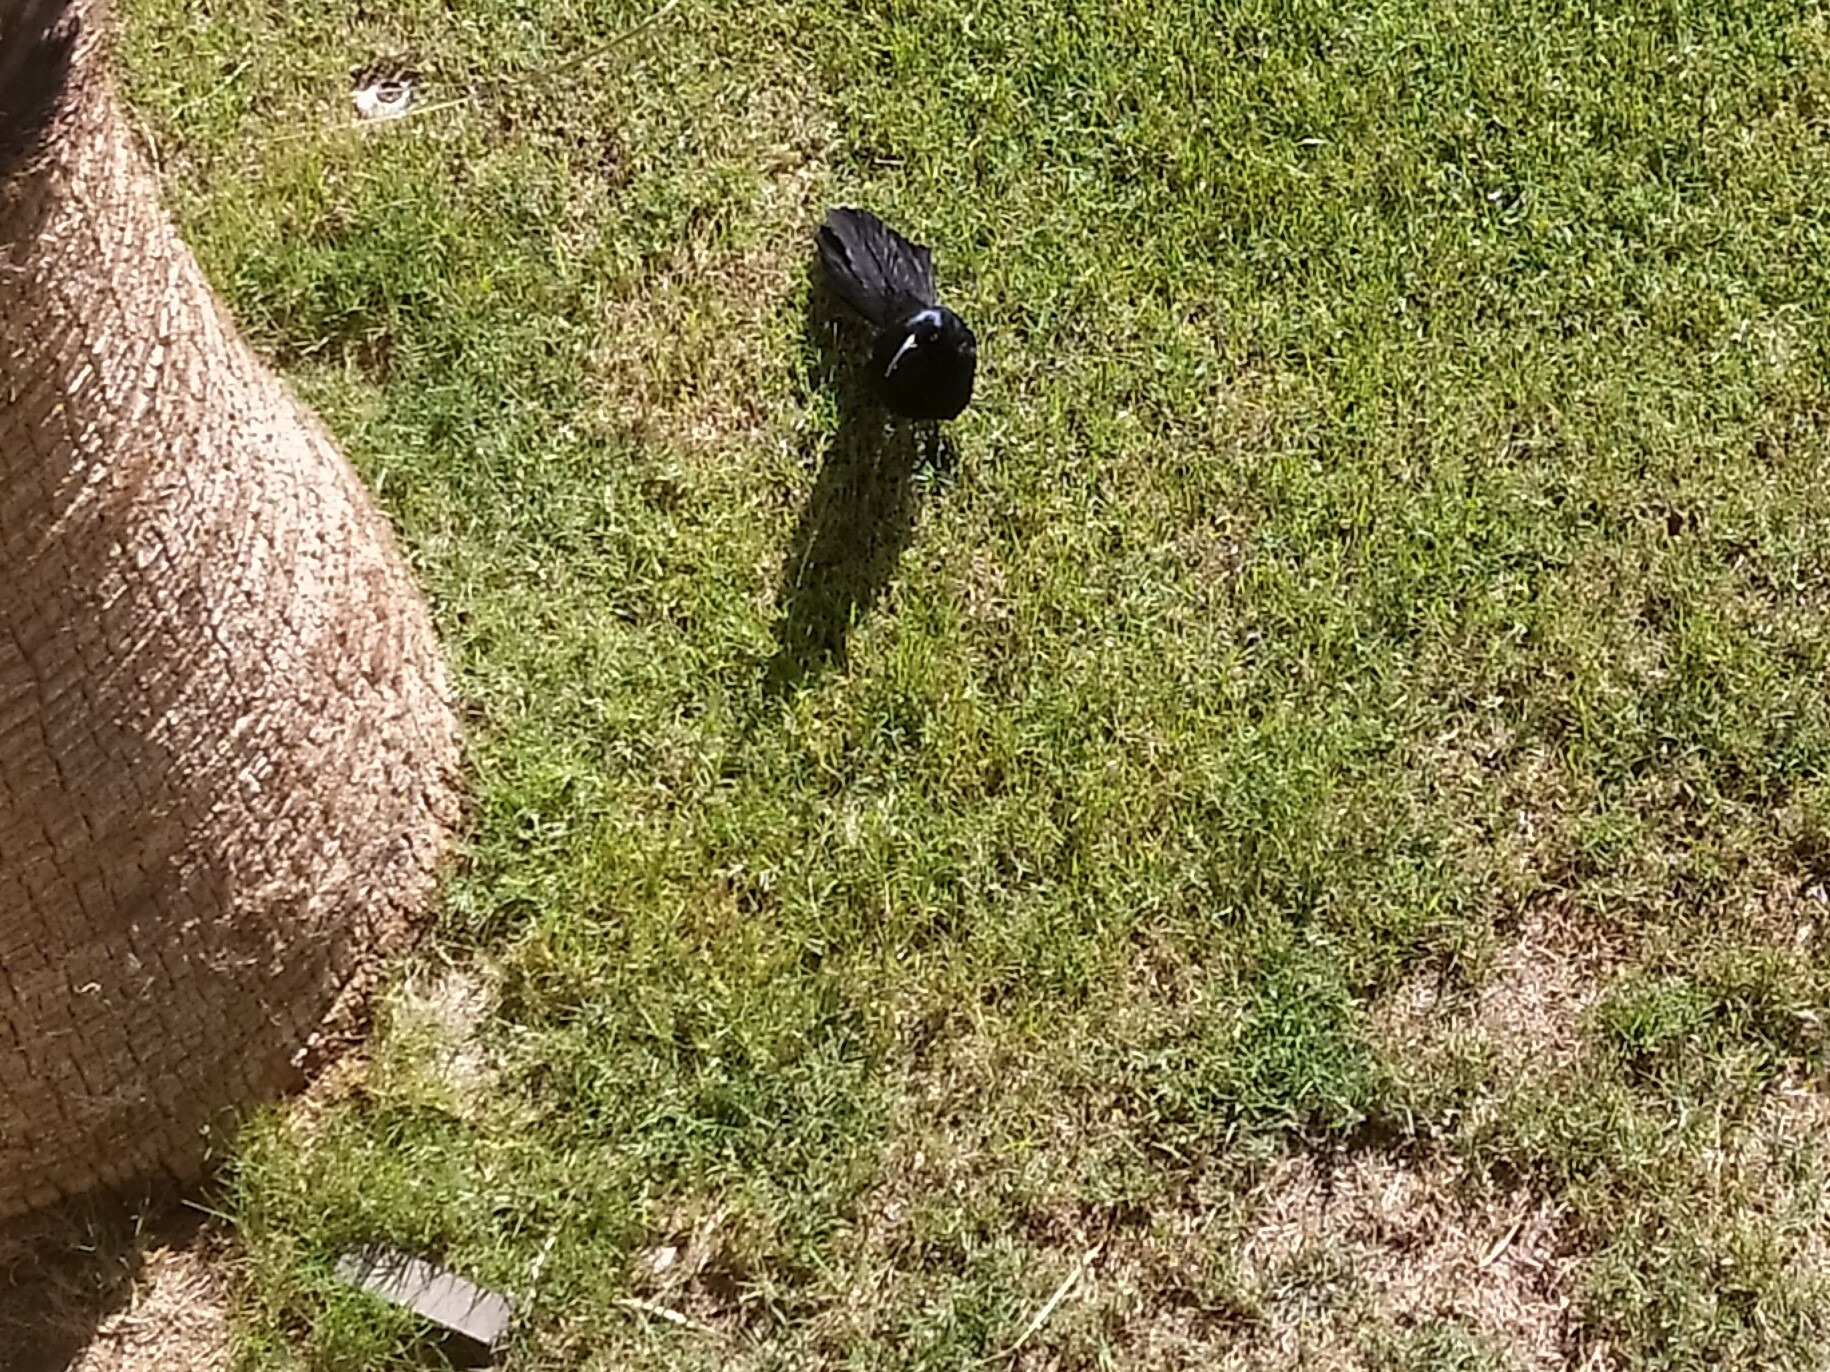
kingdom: Animalia
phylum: Chordata
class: Aves
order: Passeriformes
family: Icteridae
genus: Quiscalus
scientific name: Quiscalus mexicanus
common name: Great-tailed grackle
